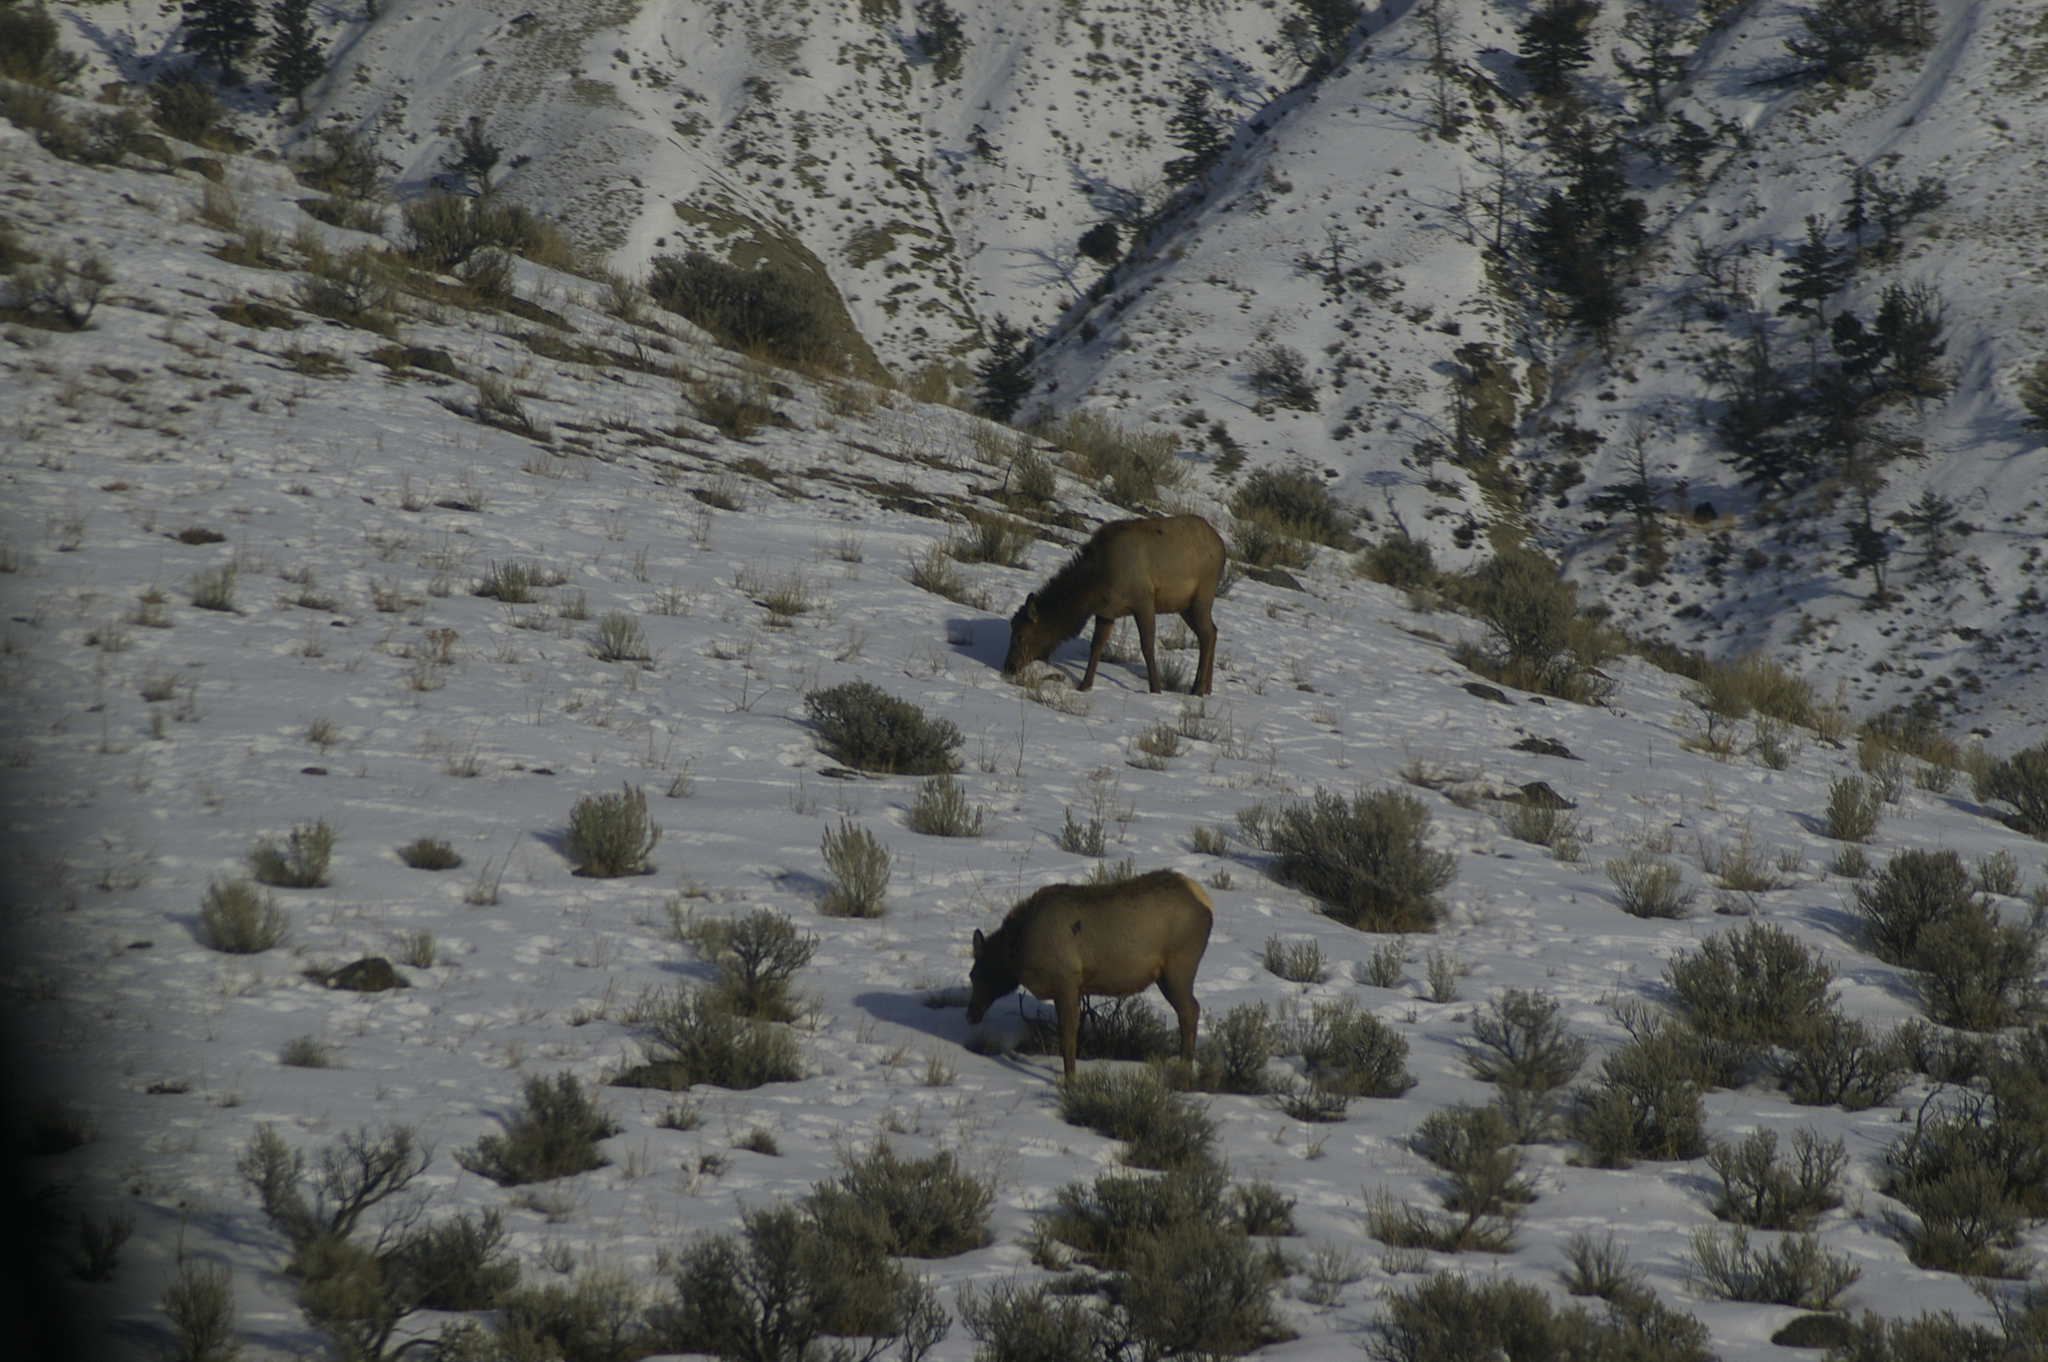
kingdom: Animalia
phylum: Chordata
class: Mammalia
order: Artiodactyla
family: Cervidae
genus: Cervus
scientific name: Cervus elaphus
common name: Red deer
